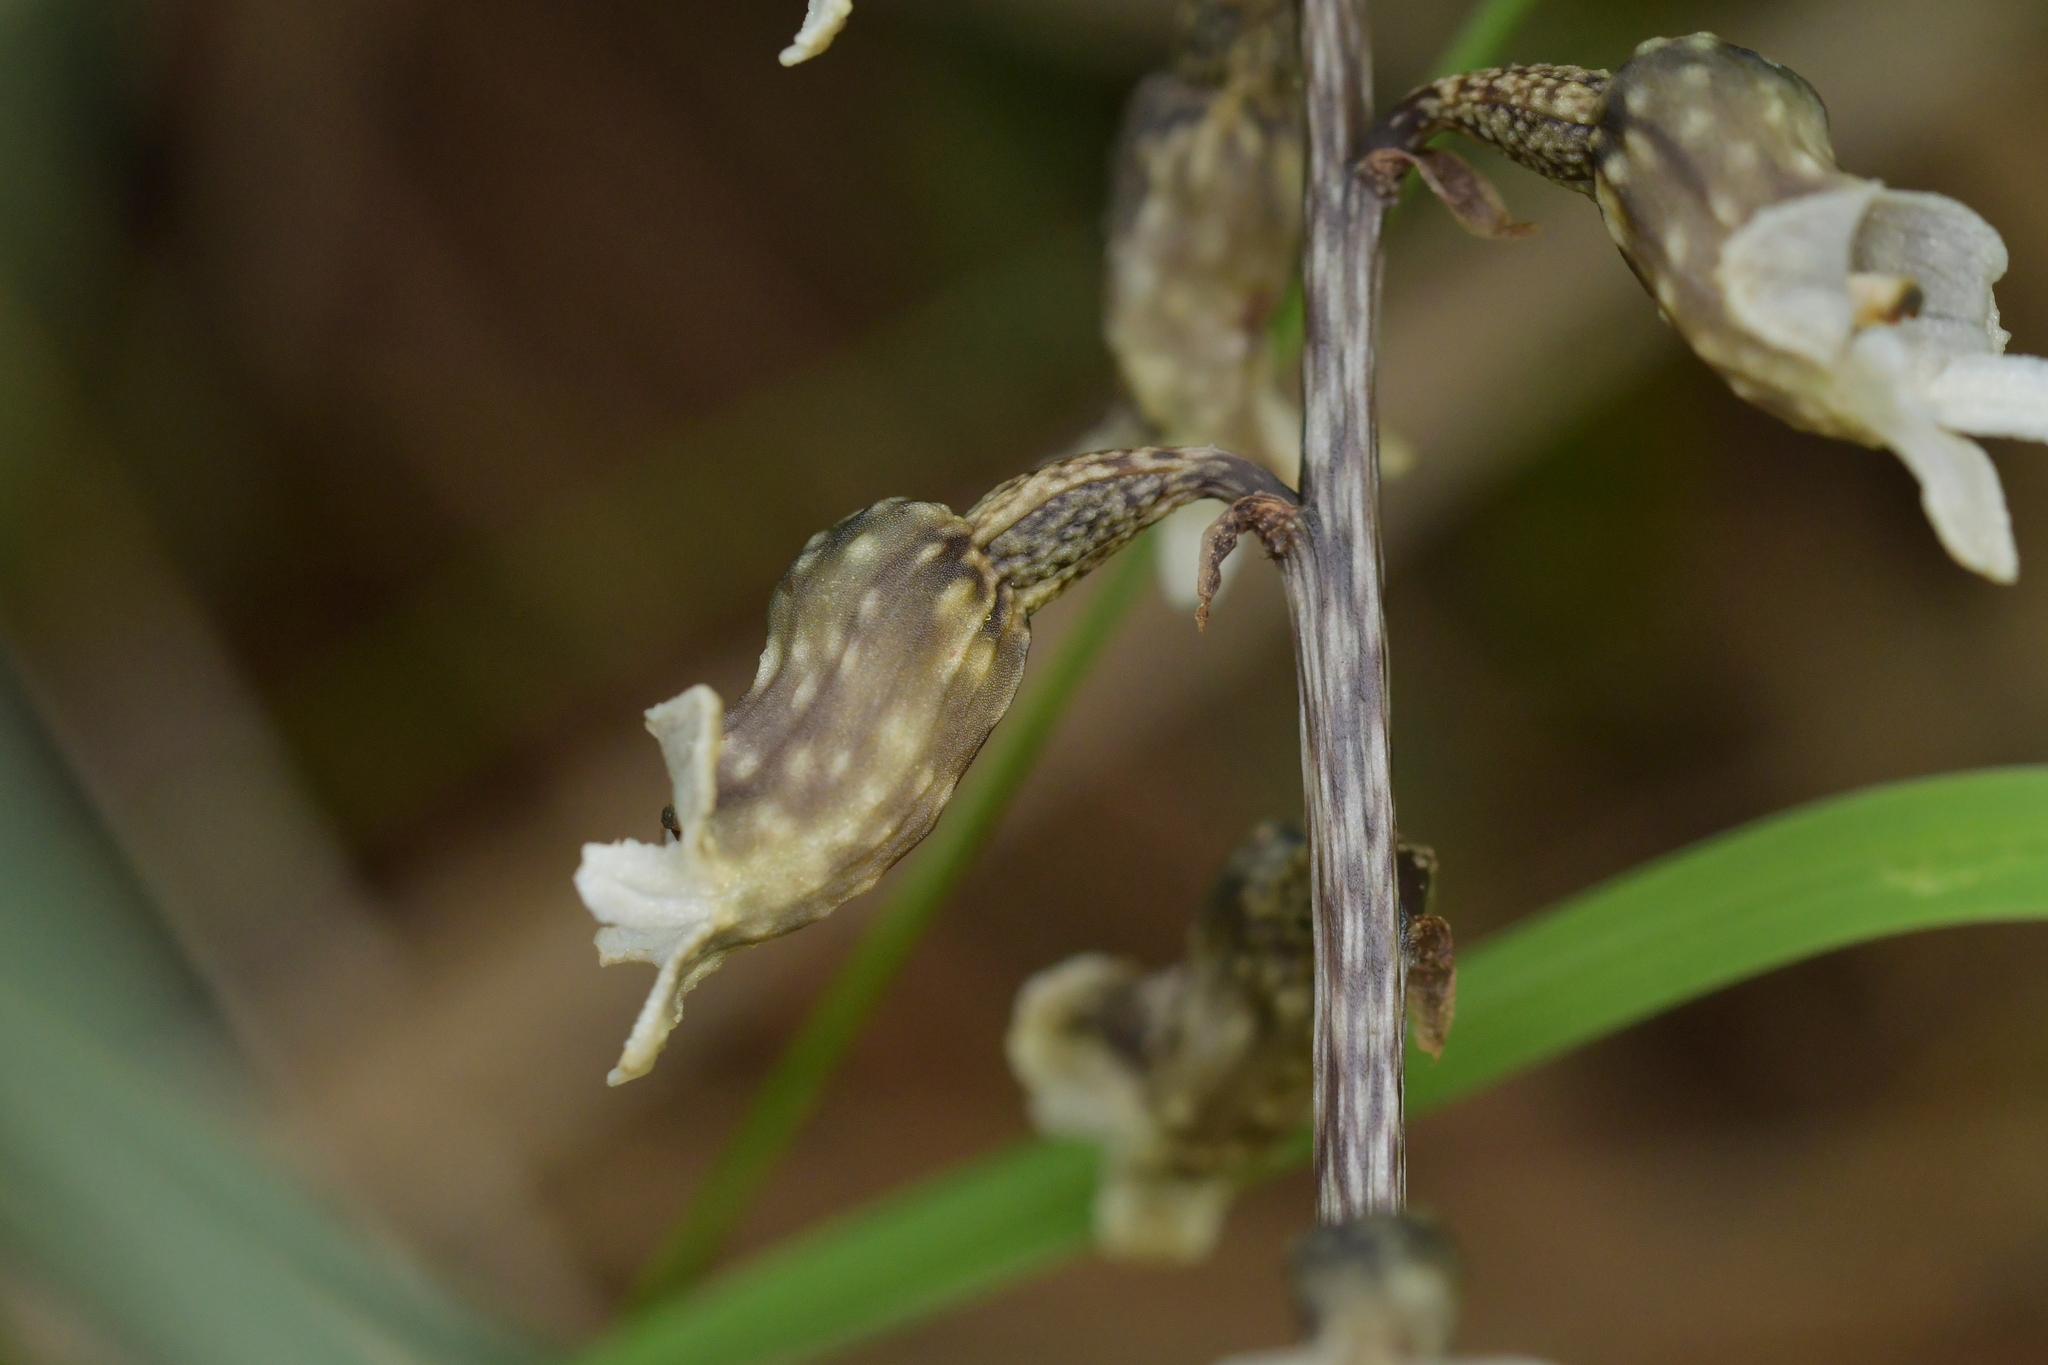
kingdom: Plantae
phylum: Tracheophyta
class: Liliopsida
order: Asparagales
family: Orchidaceae
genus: Gastrodia
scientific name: Gastrodia cunninghamii
